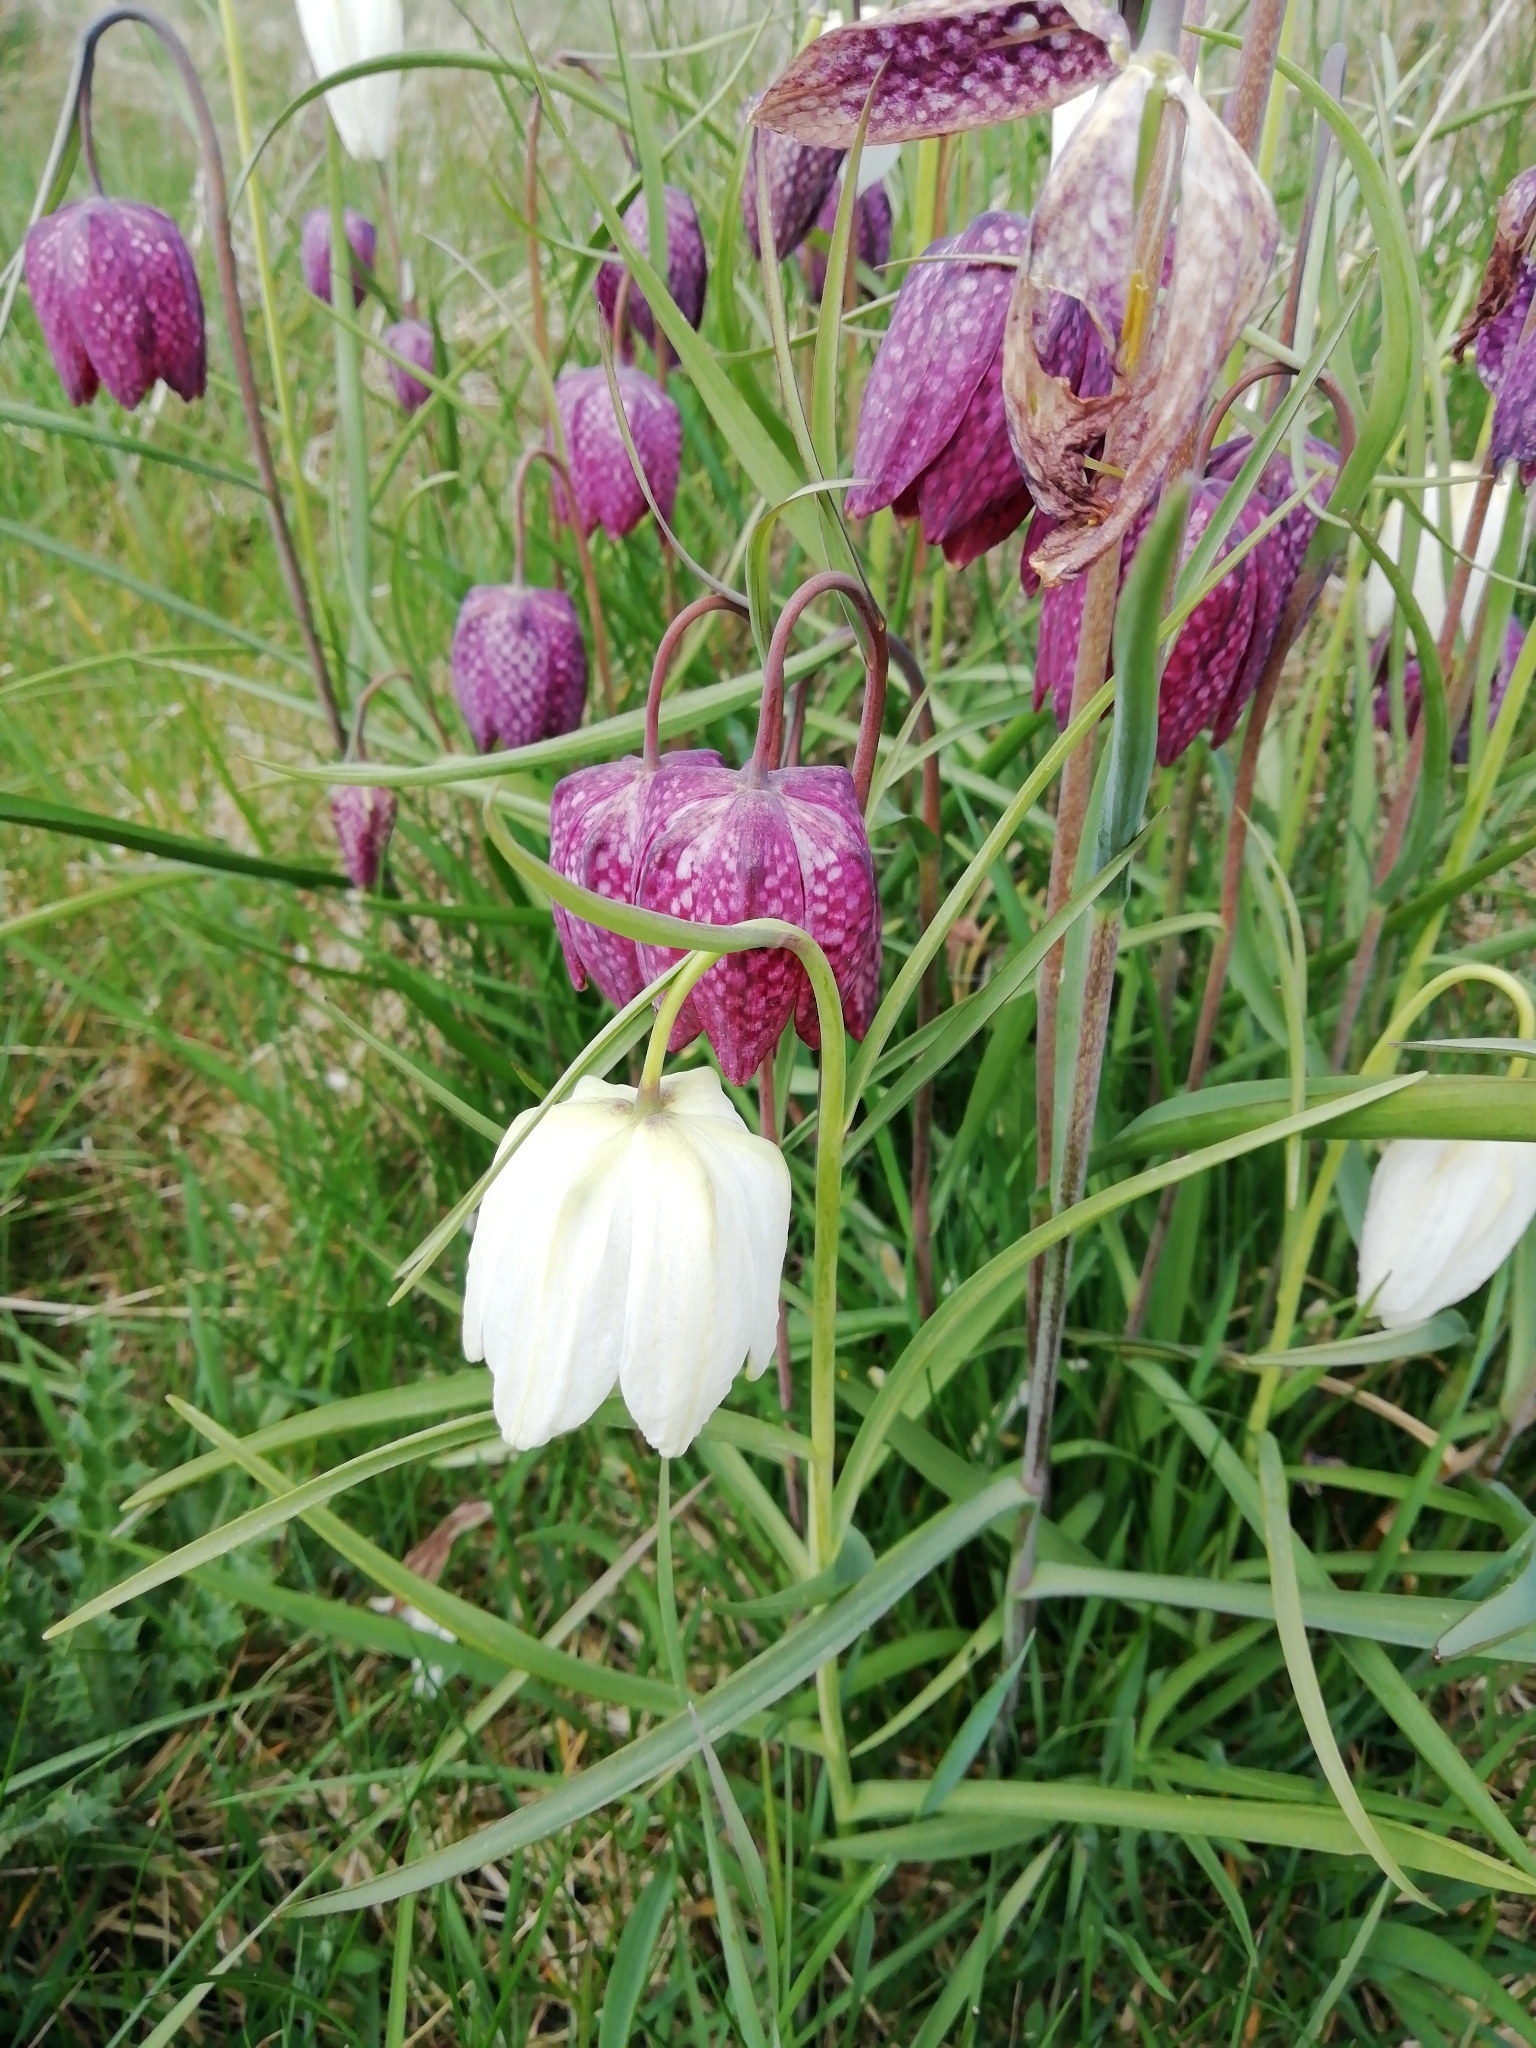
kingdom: Plantae
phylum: Tracheophyta
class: Liliopsida
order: Liliales
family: Liliaceae
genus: Fritillaria
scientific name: Fritillaria meleagris
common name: Fritillary
